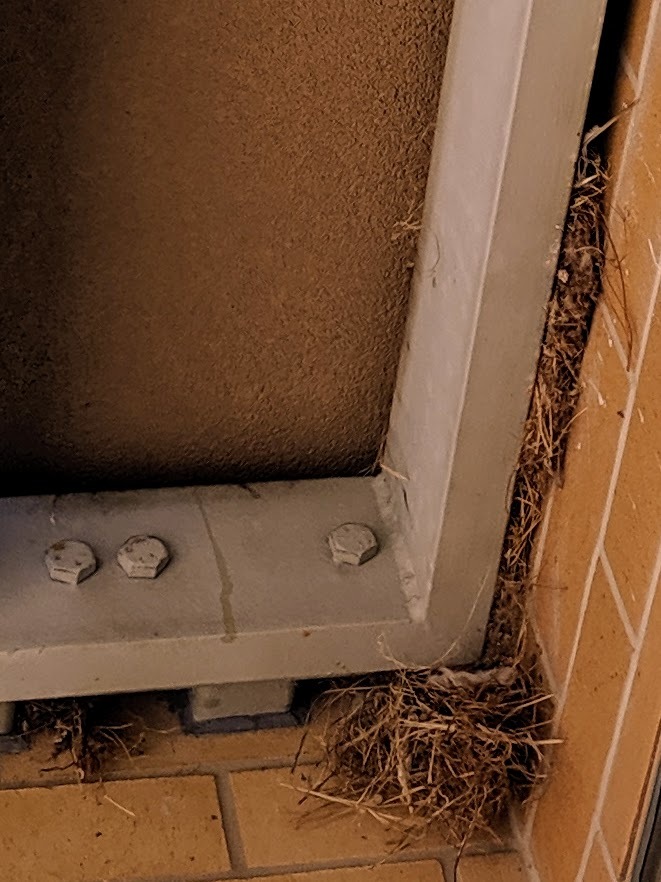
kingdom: Animalia
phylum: Chordata
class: Aves
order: Passeriformes
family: Passeridae
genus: Passer
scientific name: Passer domesticus
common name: House sparrow
